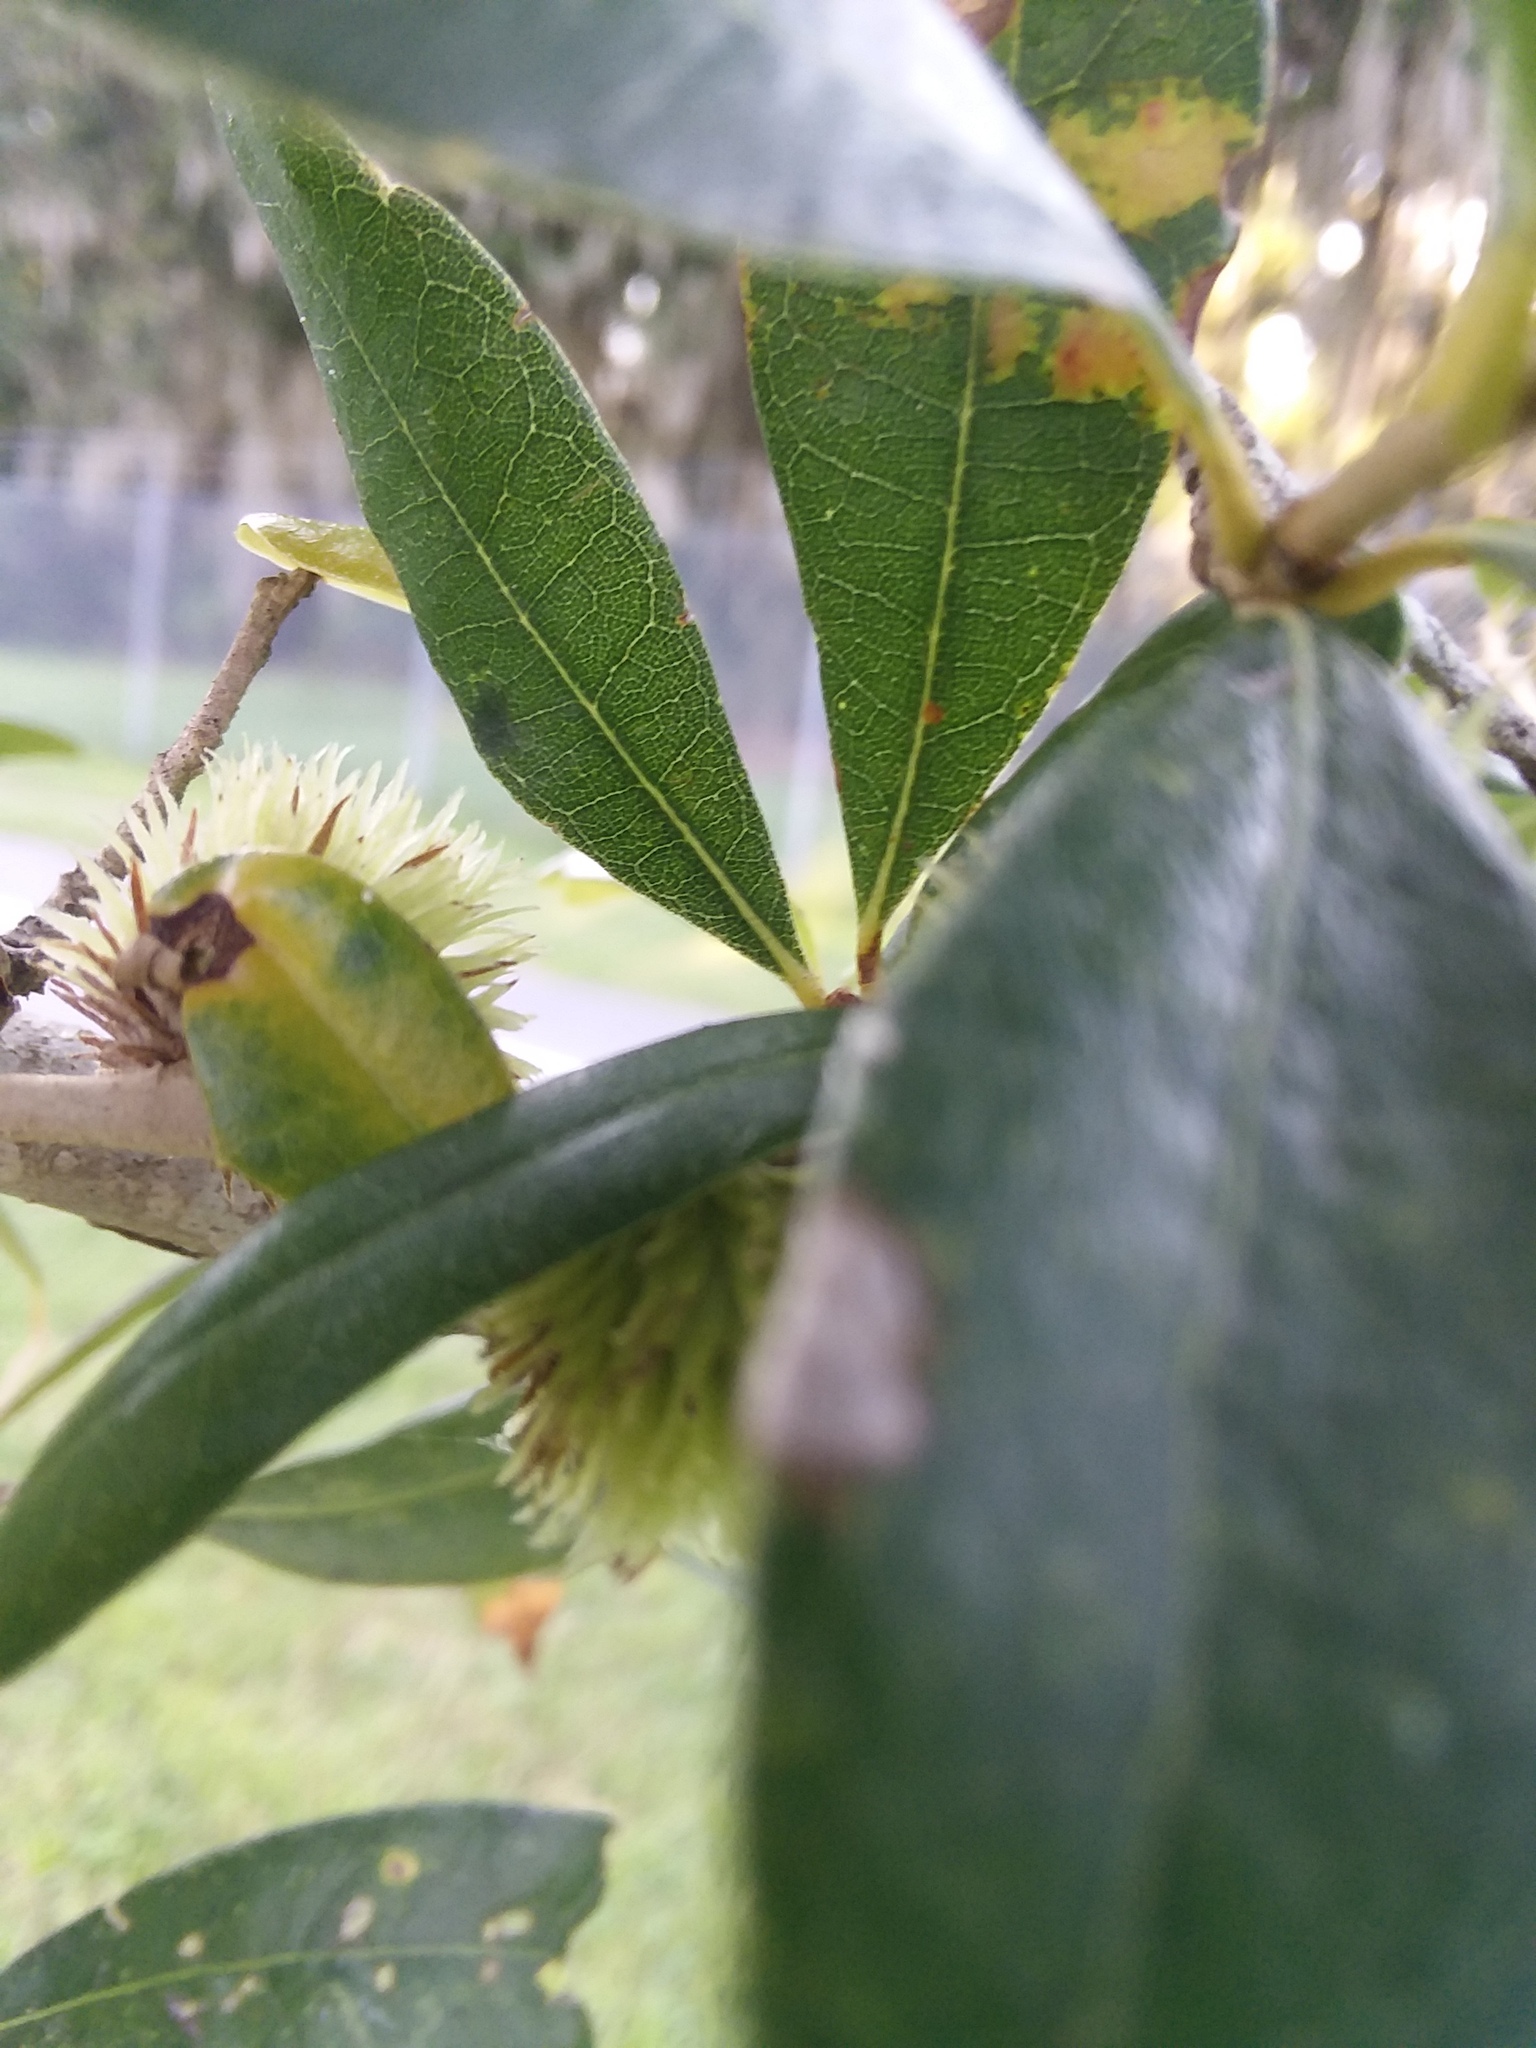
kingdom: Animalia
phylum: Arthropoda
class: Insecta
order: Hymenoptera
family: Cynipidae
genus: Andricus
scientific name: Andricus quercusfoliatus
